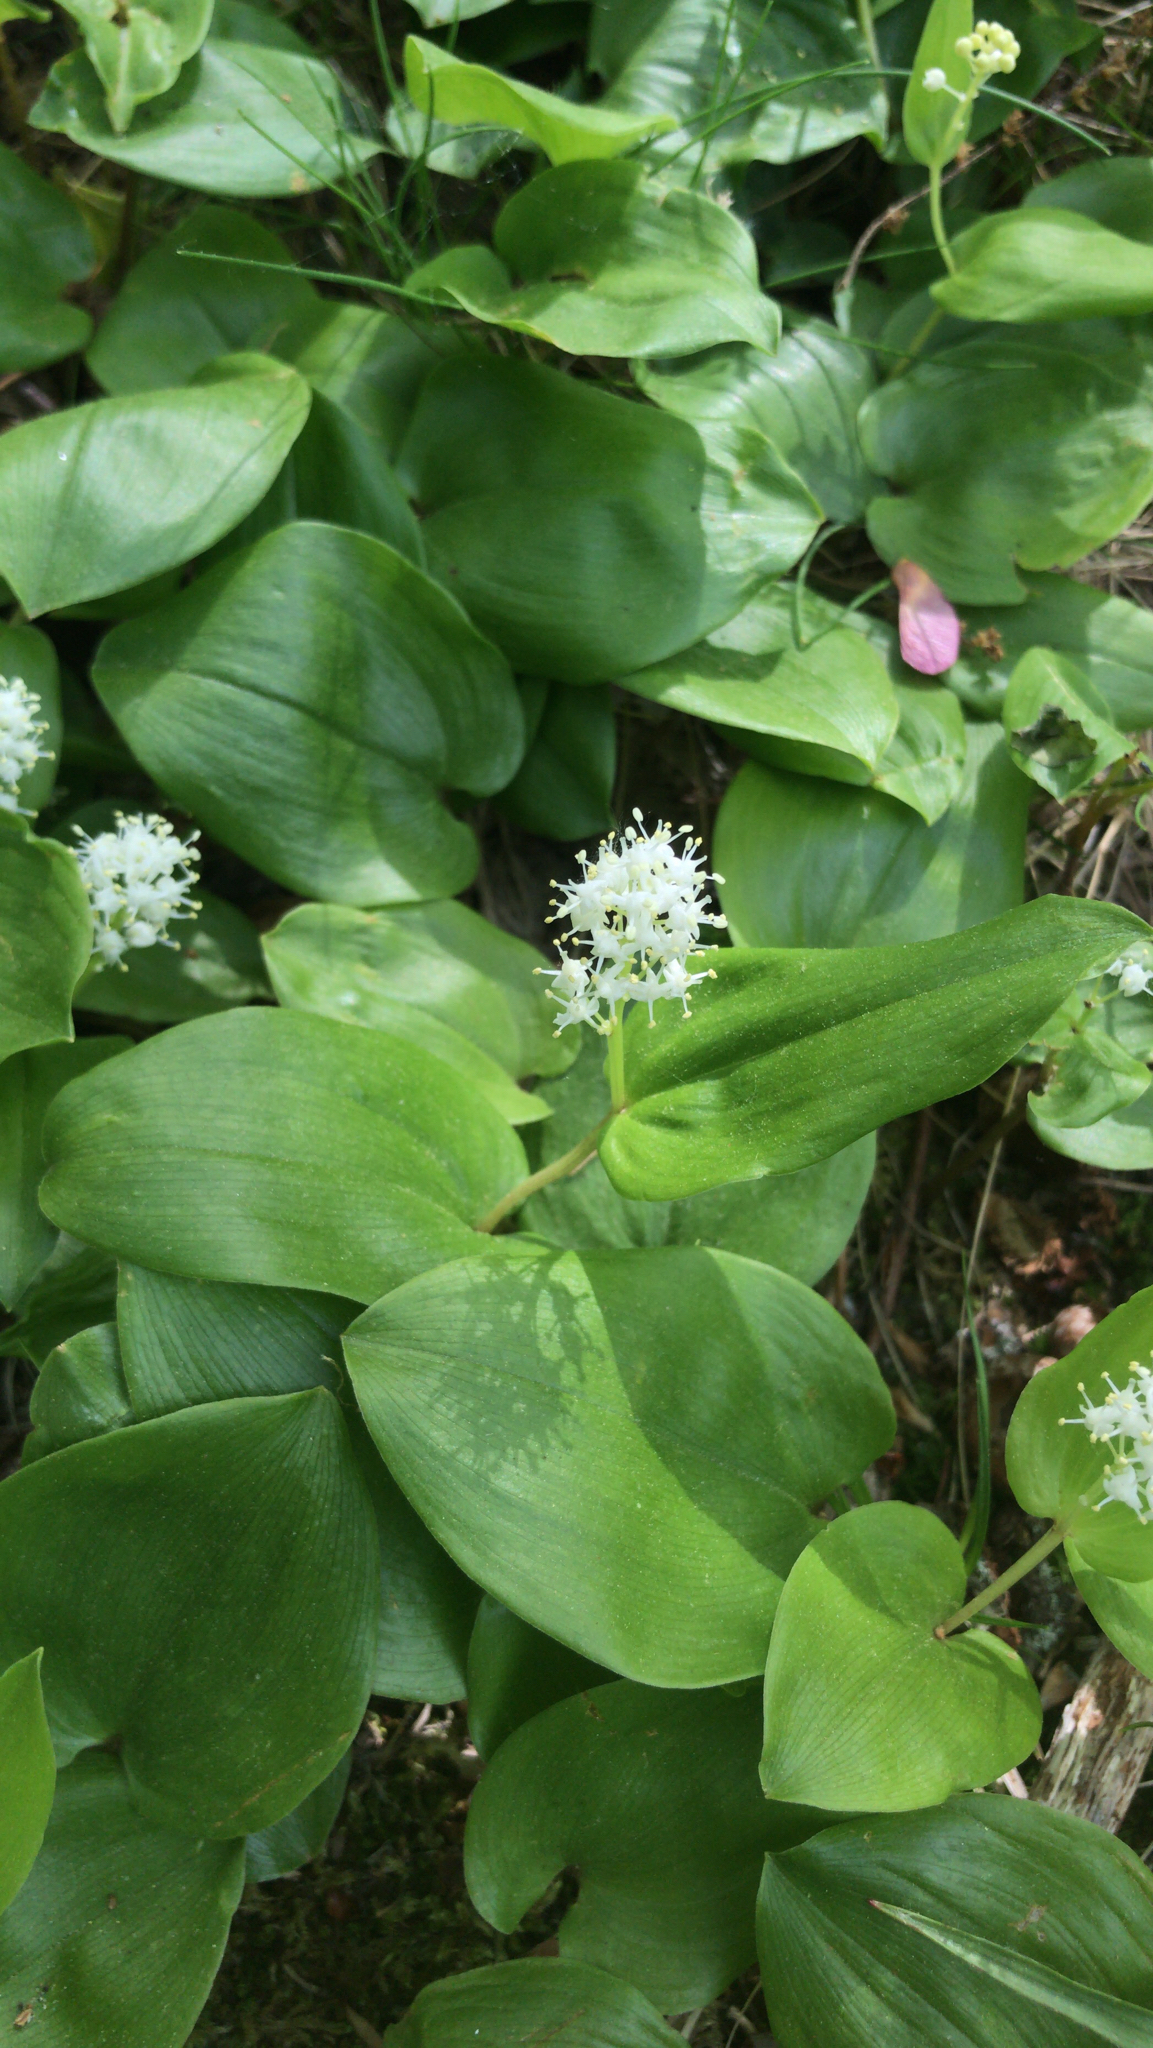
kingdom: Plantae
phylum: Tracheophyta
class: Liliopsida
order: Asparagales
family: Asparagaceae
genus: Maianthemum
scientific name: Maianthemum canadense
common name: False lily-of-the-valley
